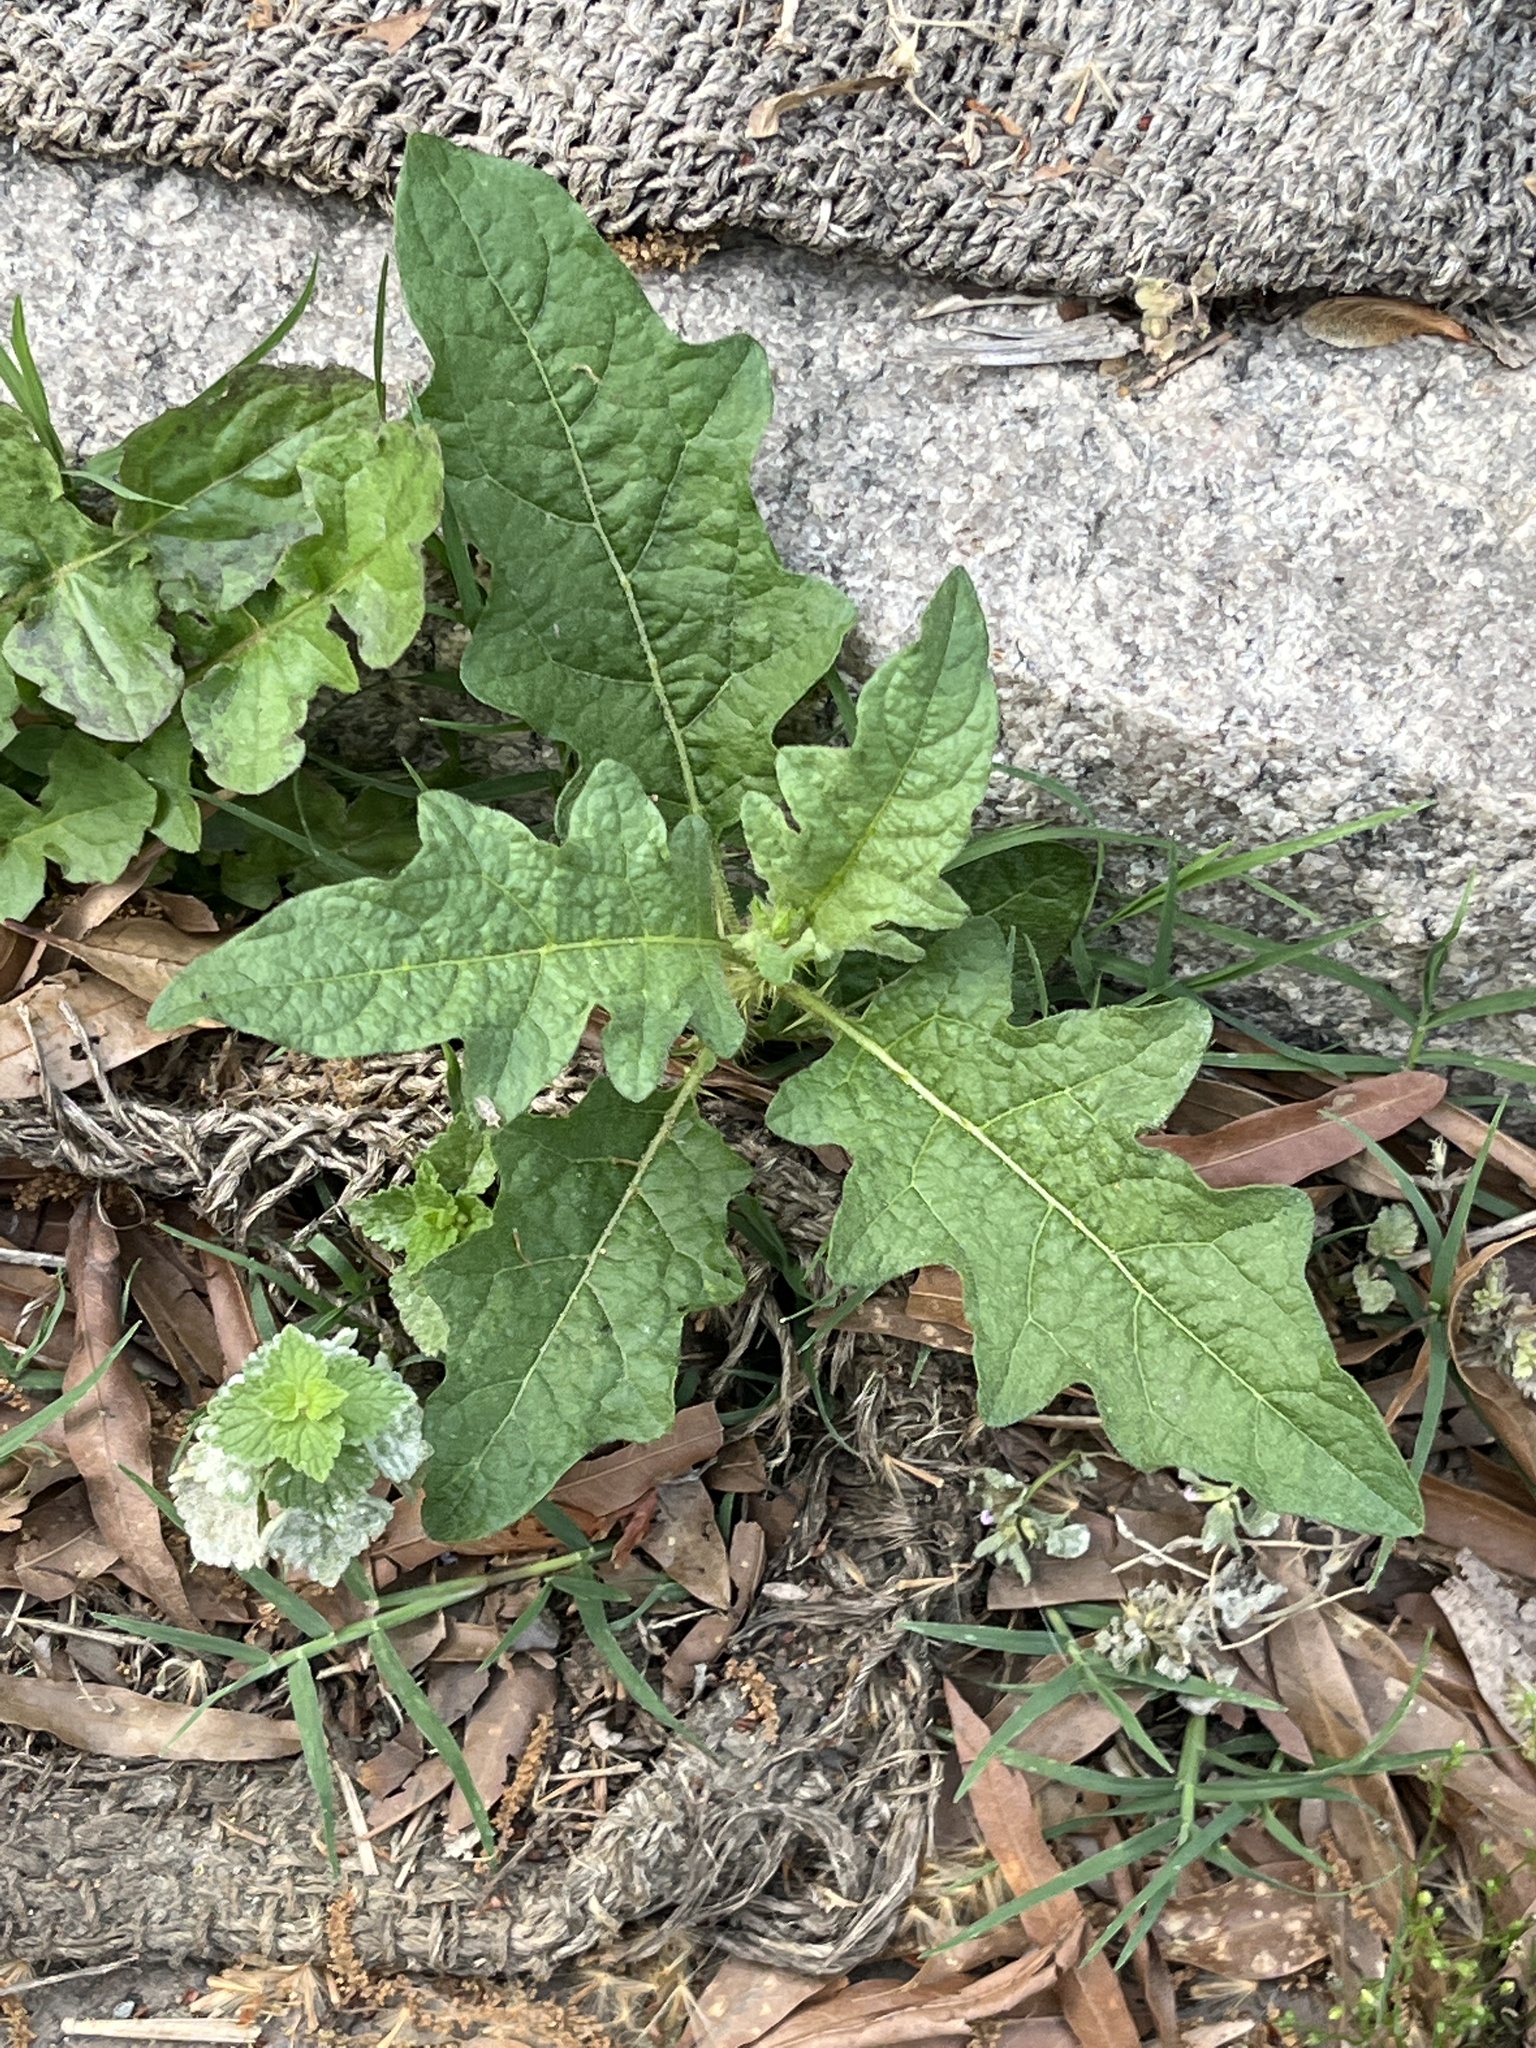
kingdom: Plantae
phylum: Tracheophyta
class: Magnoliopsida
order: Solanales
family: Solanaceae
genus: Solanum
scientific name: Solanum carolinense
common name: Horse-nettle
